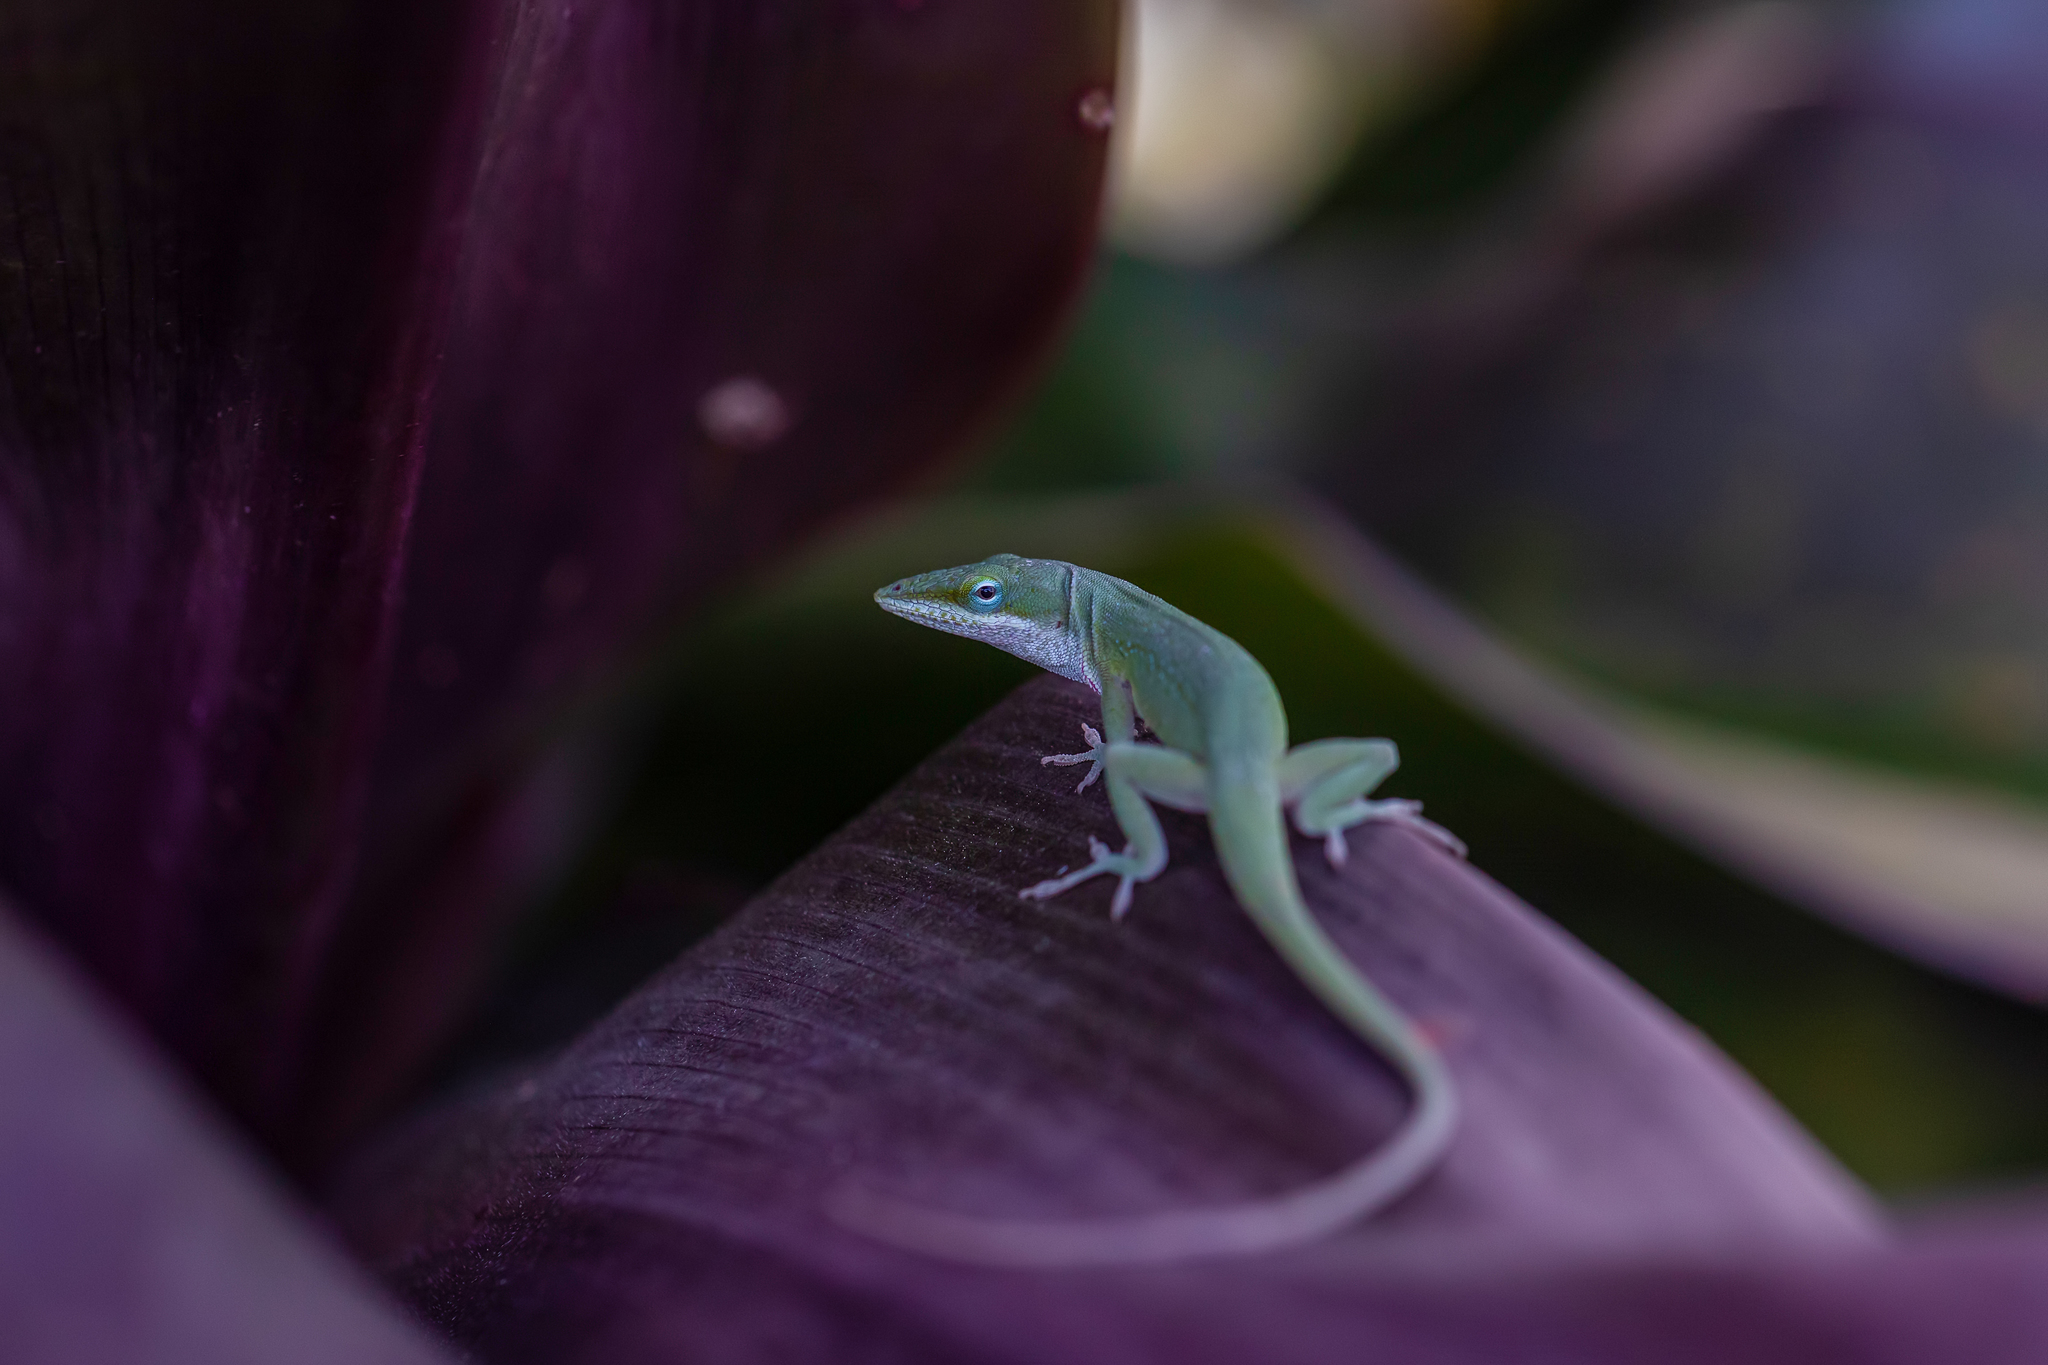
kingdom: Animalia
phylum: Chordata
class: Squamata
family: Dactyloidae
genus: Anolis
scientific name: Anolis carolinensis
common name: Green anole
